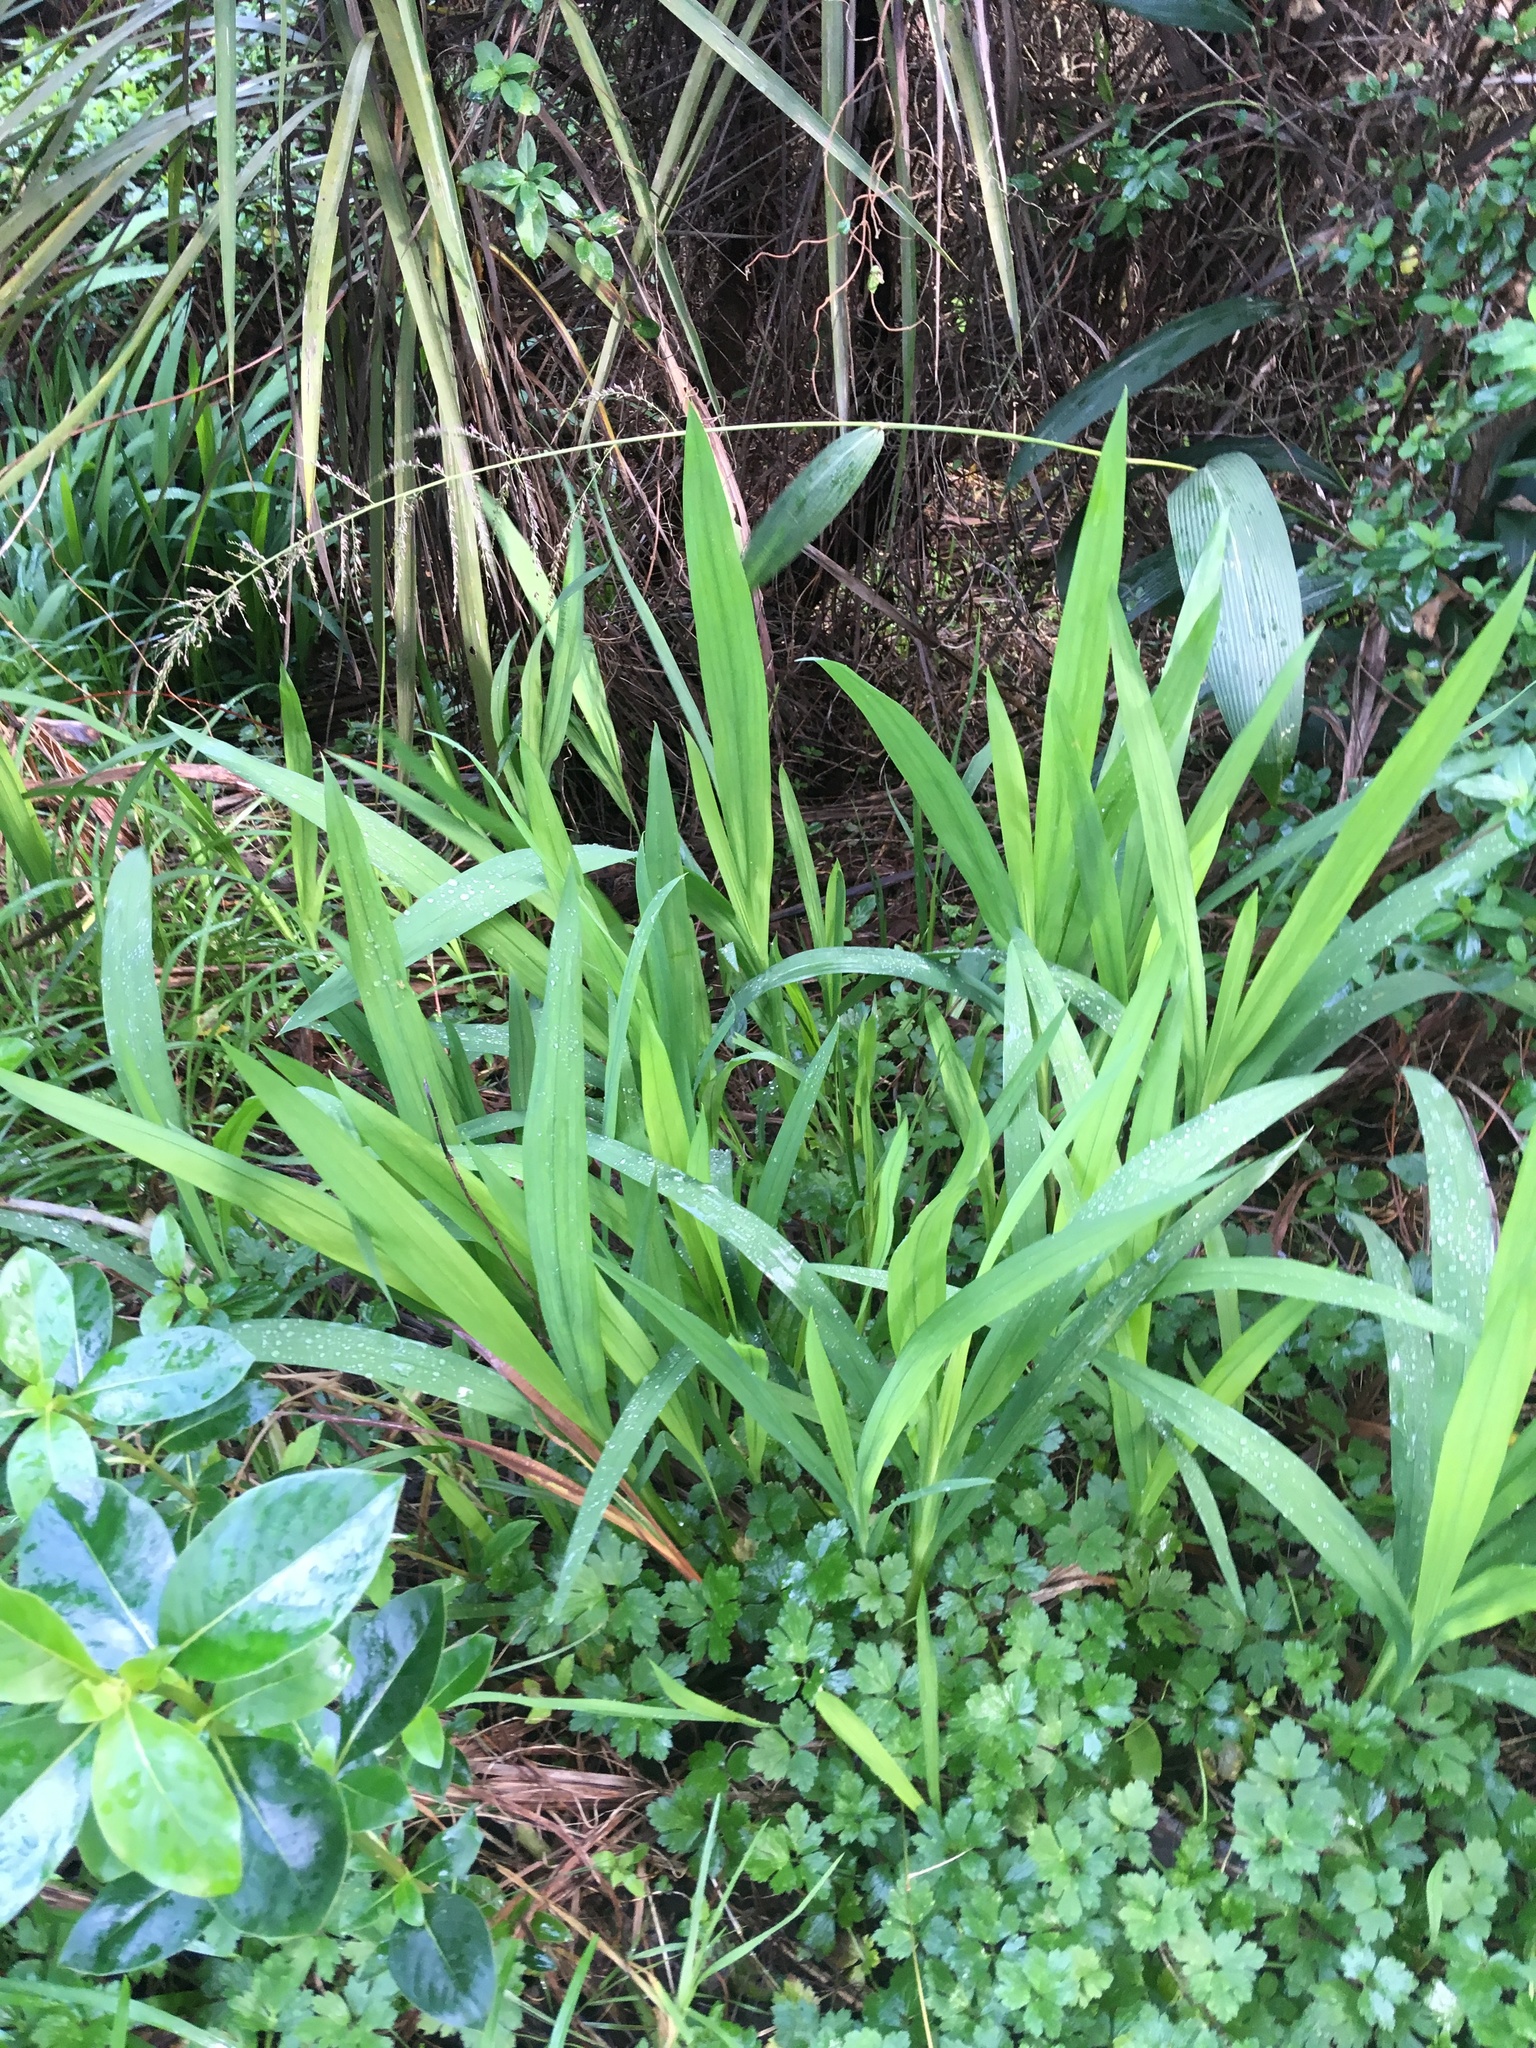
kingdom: Plantae
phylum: Tracheophyta
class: Liliopsida
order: Asparagales
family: Iridaceae
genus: Crocosmia
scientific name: Crocosmia crocosmiiflora
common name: Montbretia
